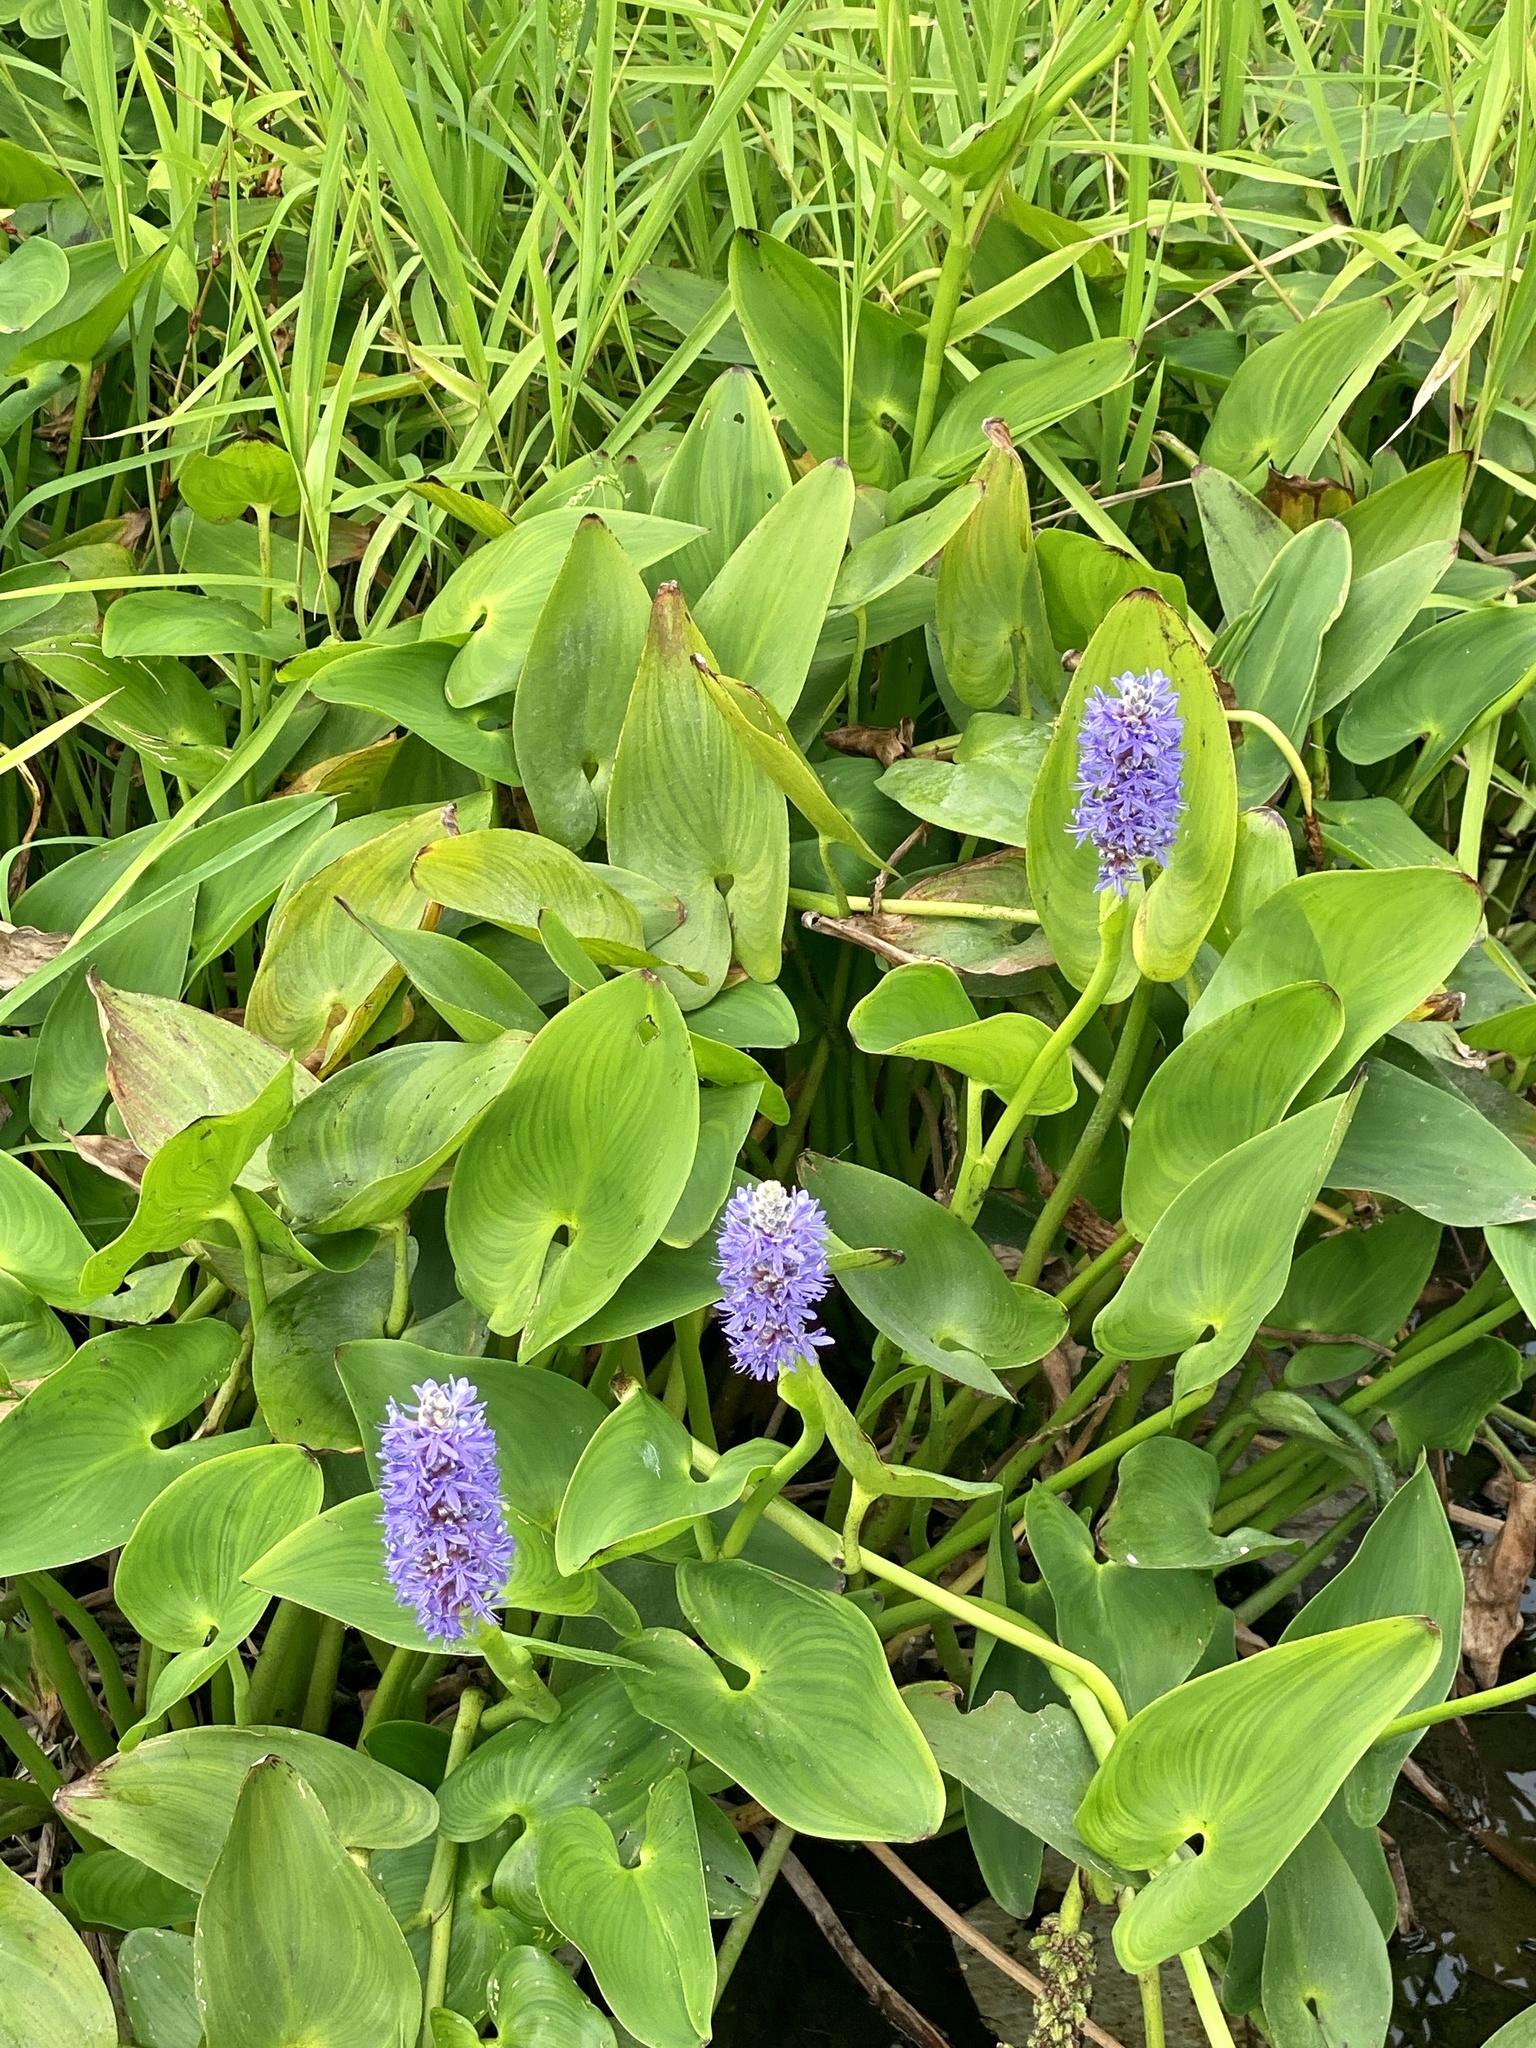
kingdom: Plantae
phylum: Tracheophyta
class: Liliopsida
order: Commelinales
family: Pontederiaceae
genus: Pontederia
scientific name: Pontederia cordata
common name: Pickerelweed
